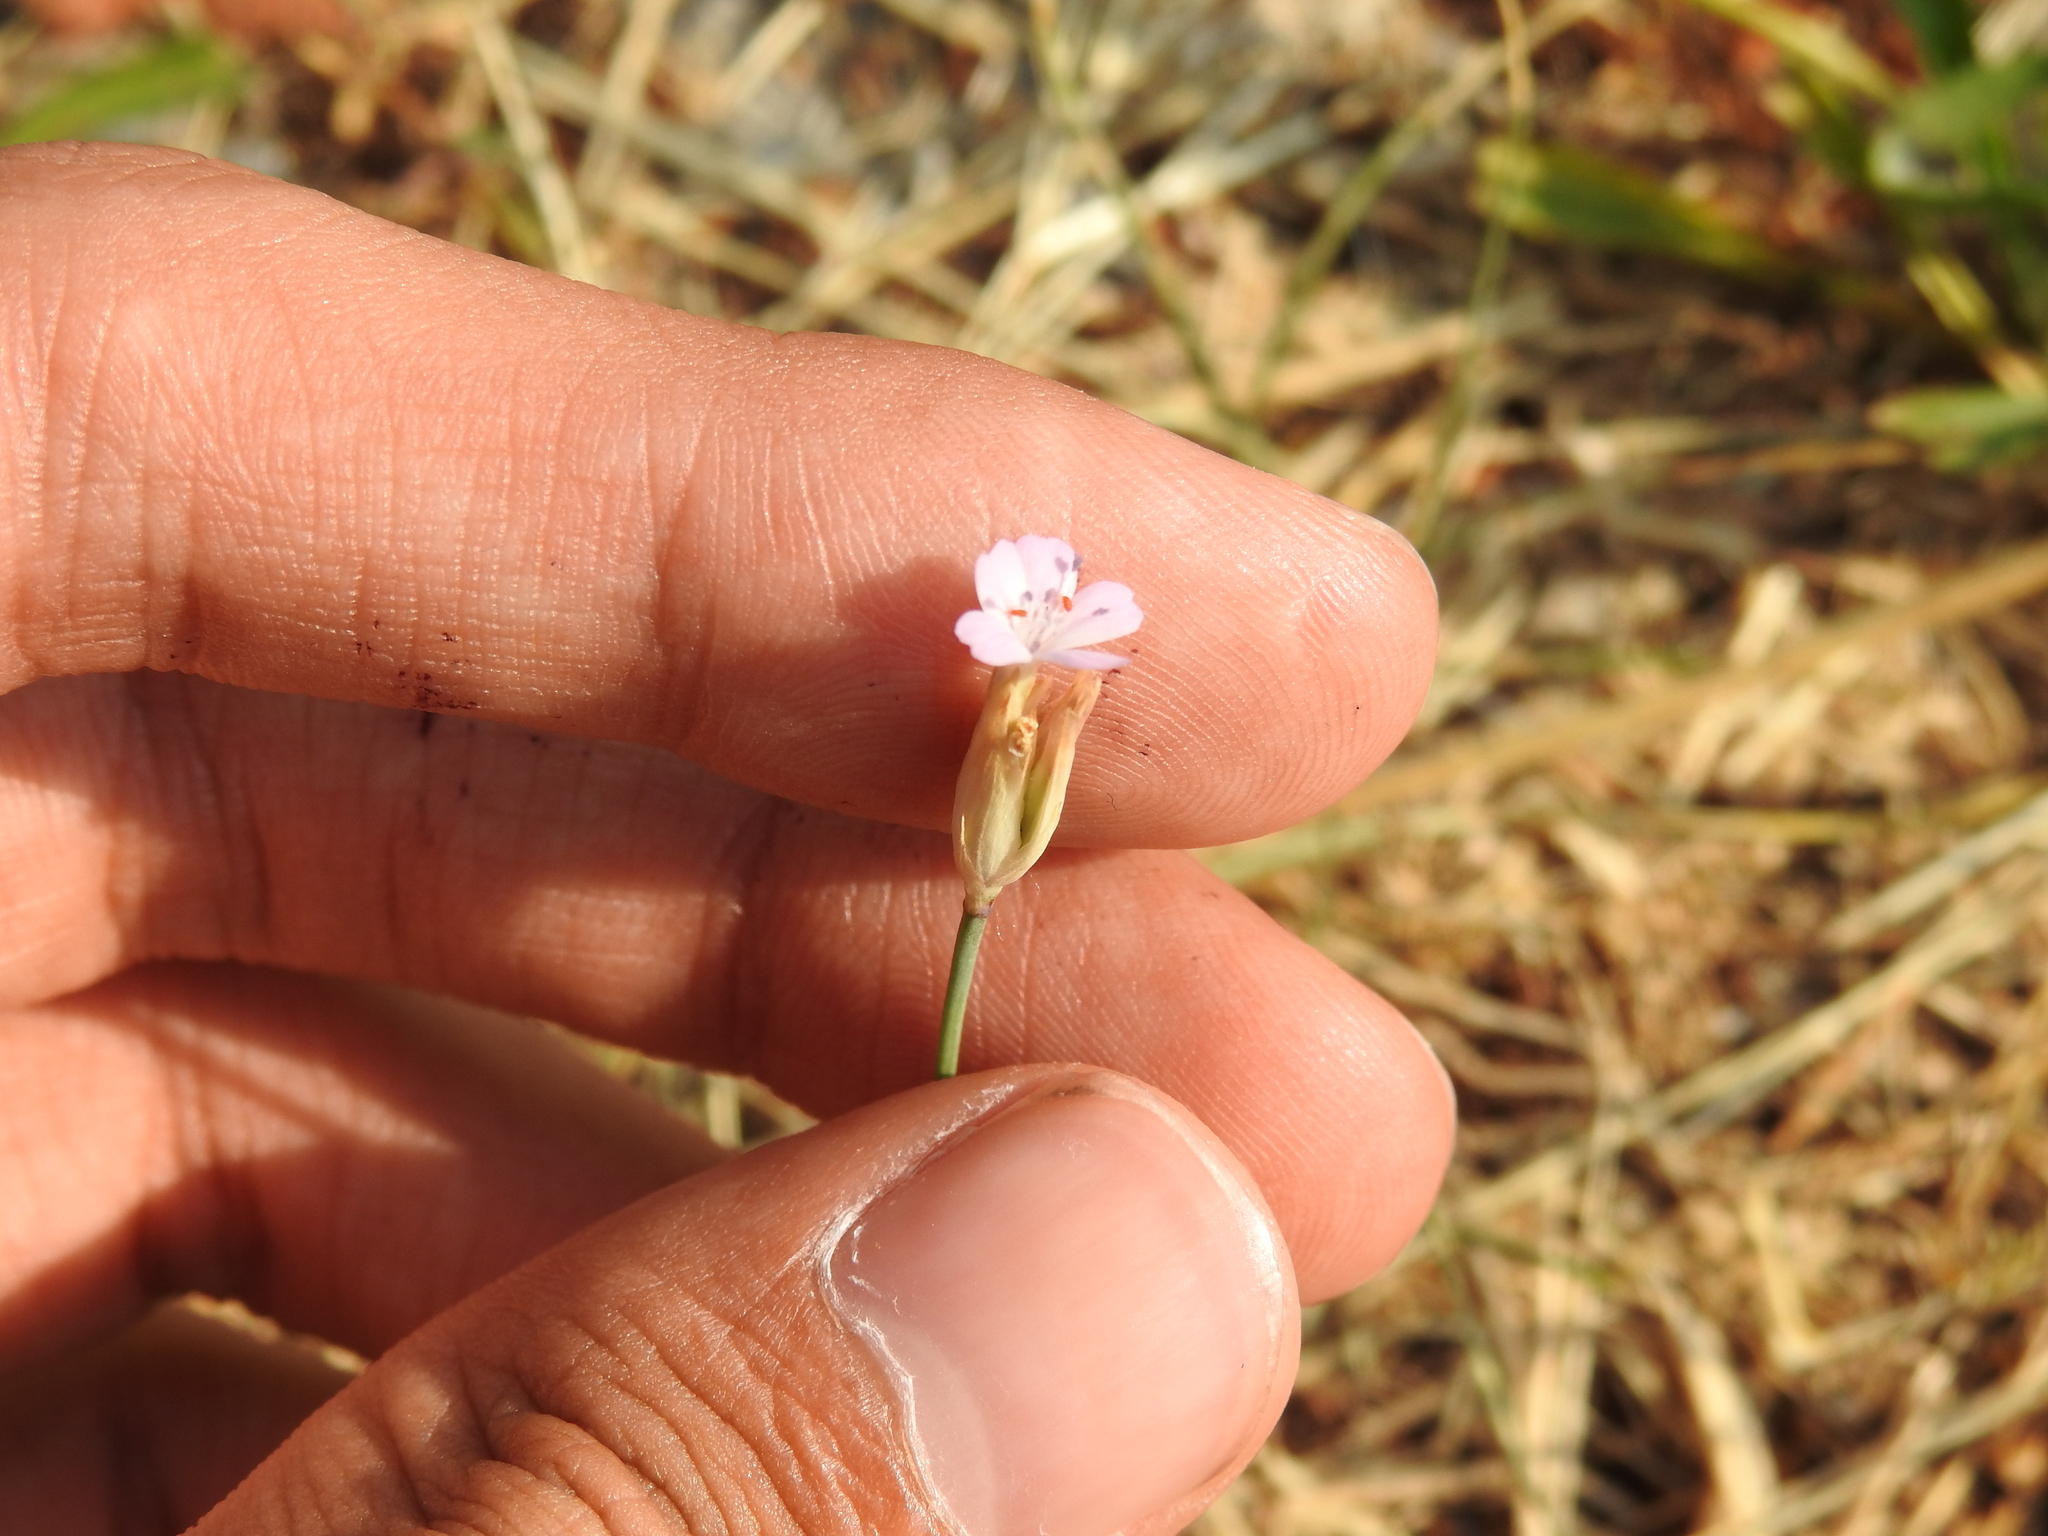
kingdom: Plantae
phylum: Tracheophyta
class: Magnoliopsida
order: Caryophyllales
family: Caryophyllaceae
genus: Petrorhagia
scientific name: Petrorhagia prolifera
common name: Proliferous pink
